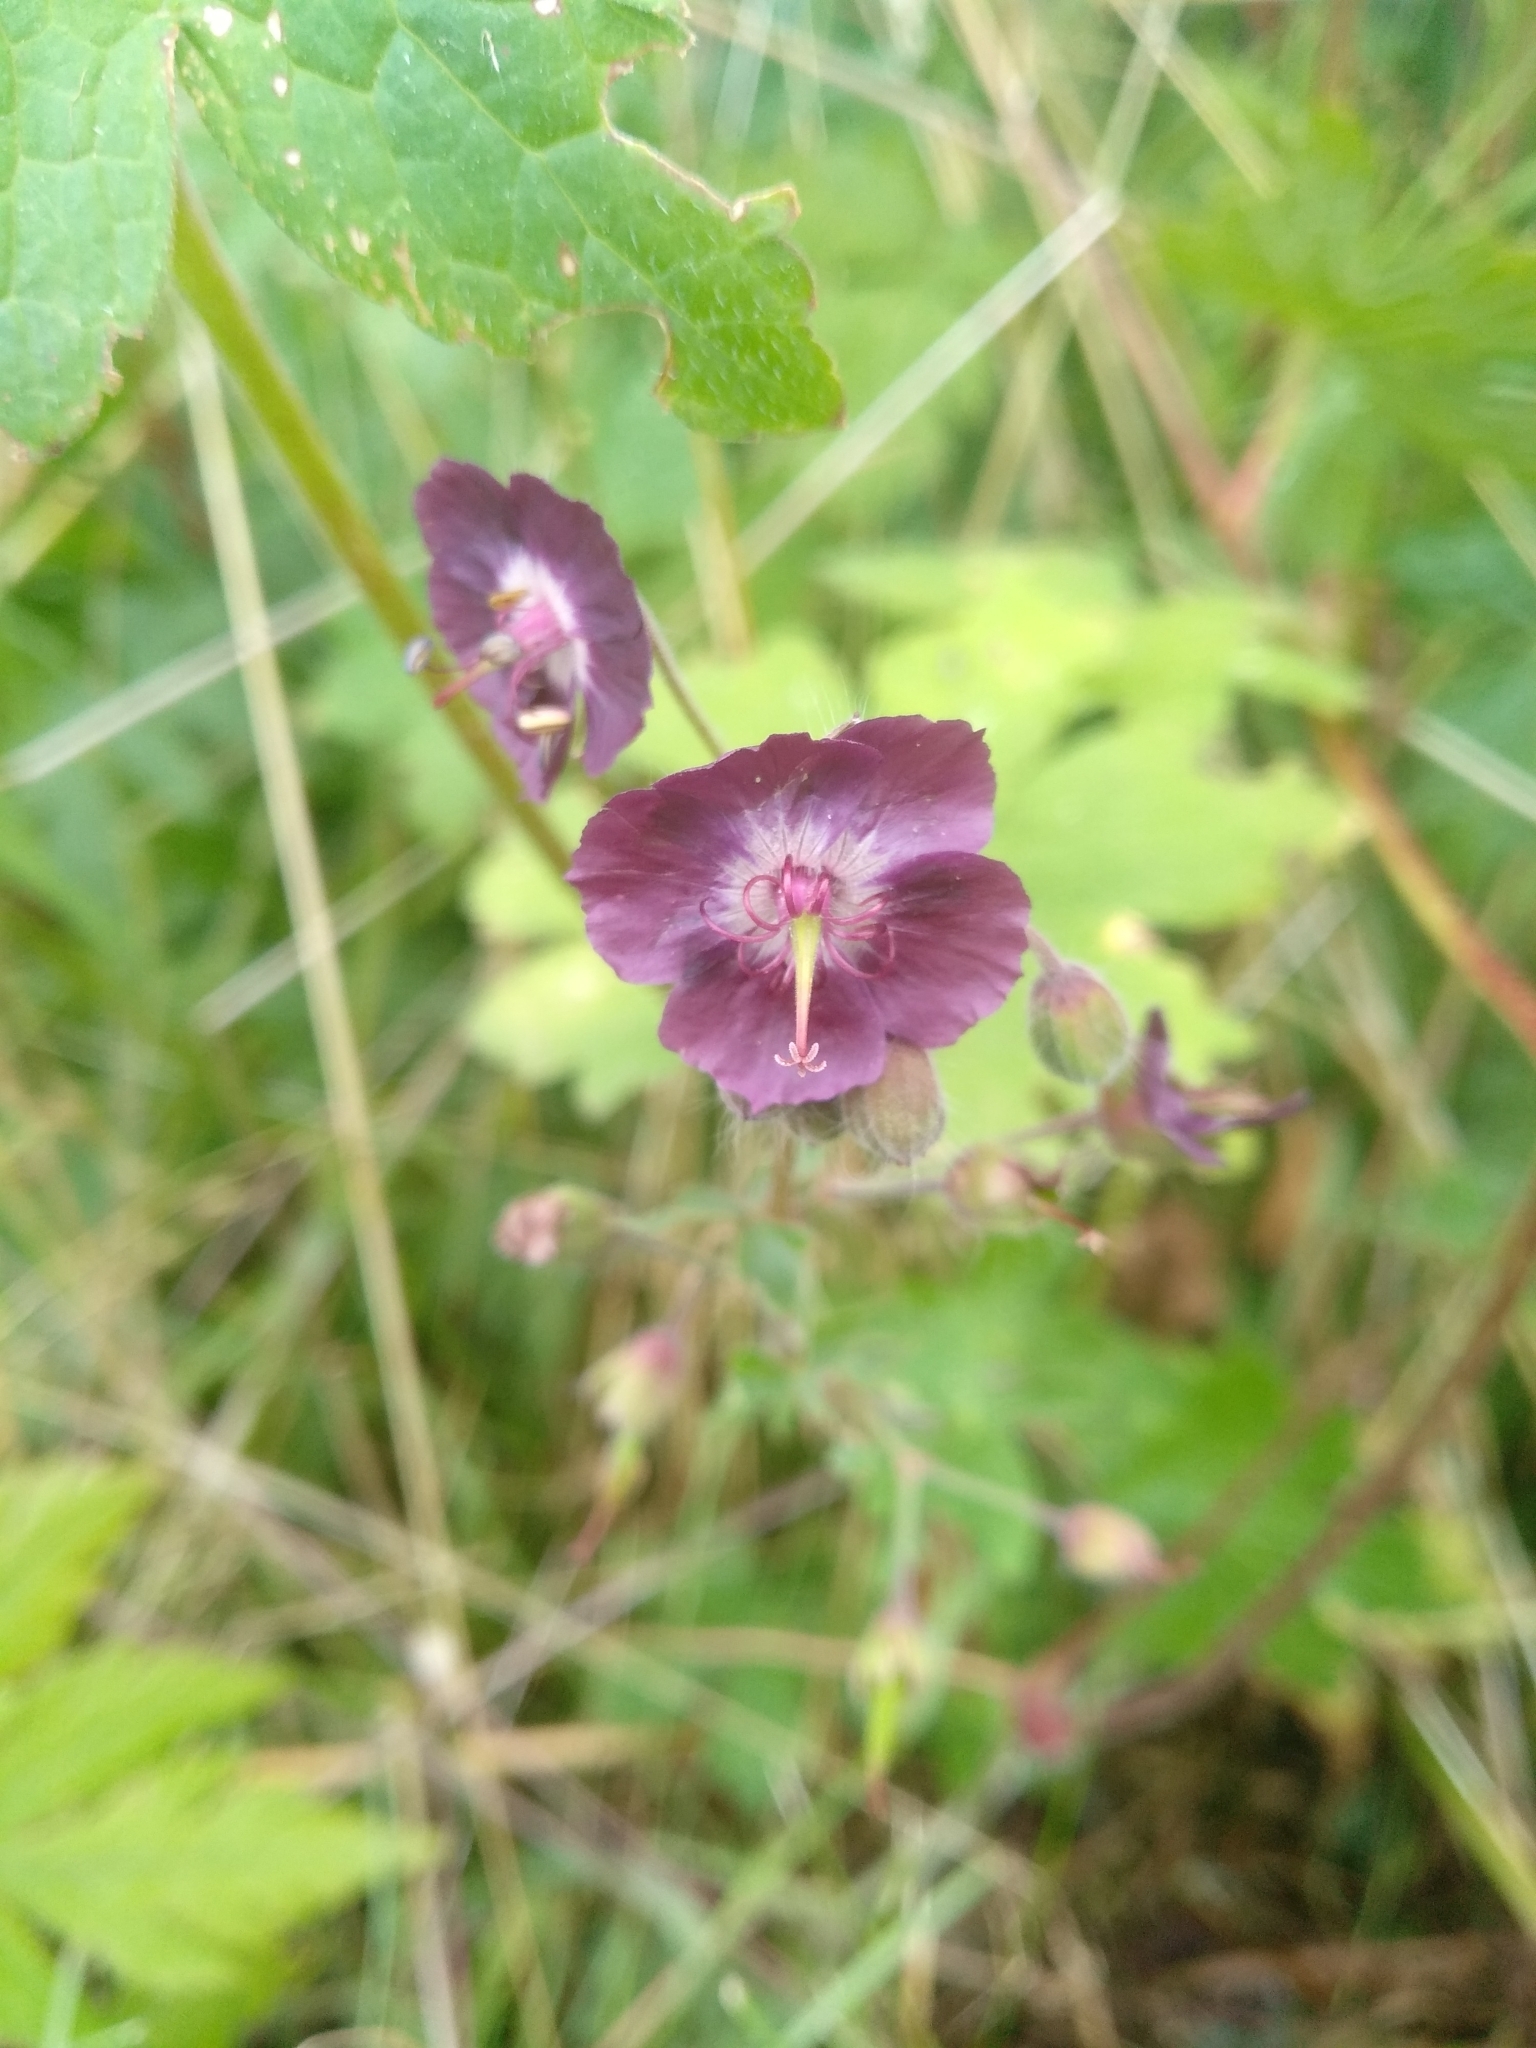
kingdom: Plantae
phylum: Tracheophyta
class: Magnoliopsida
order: Geraniales
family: Geraniaceae
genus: Geranium
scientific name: Geranium phaeum
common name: Dusky crane's-bill
